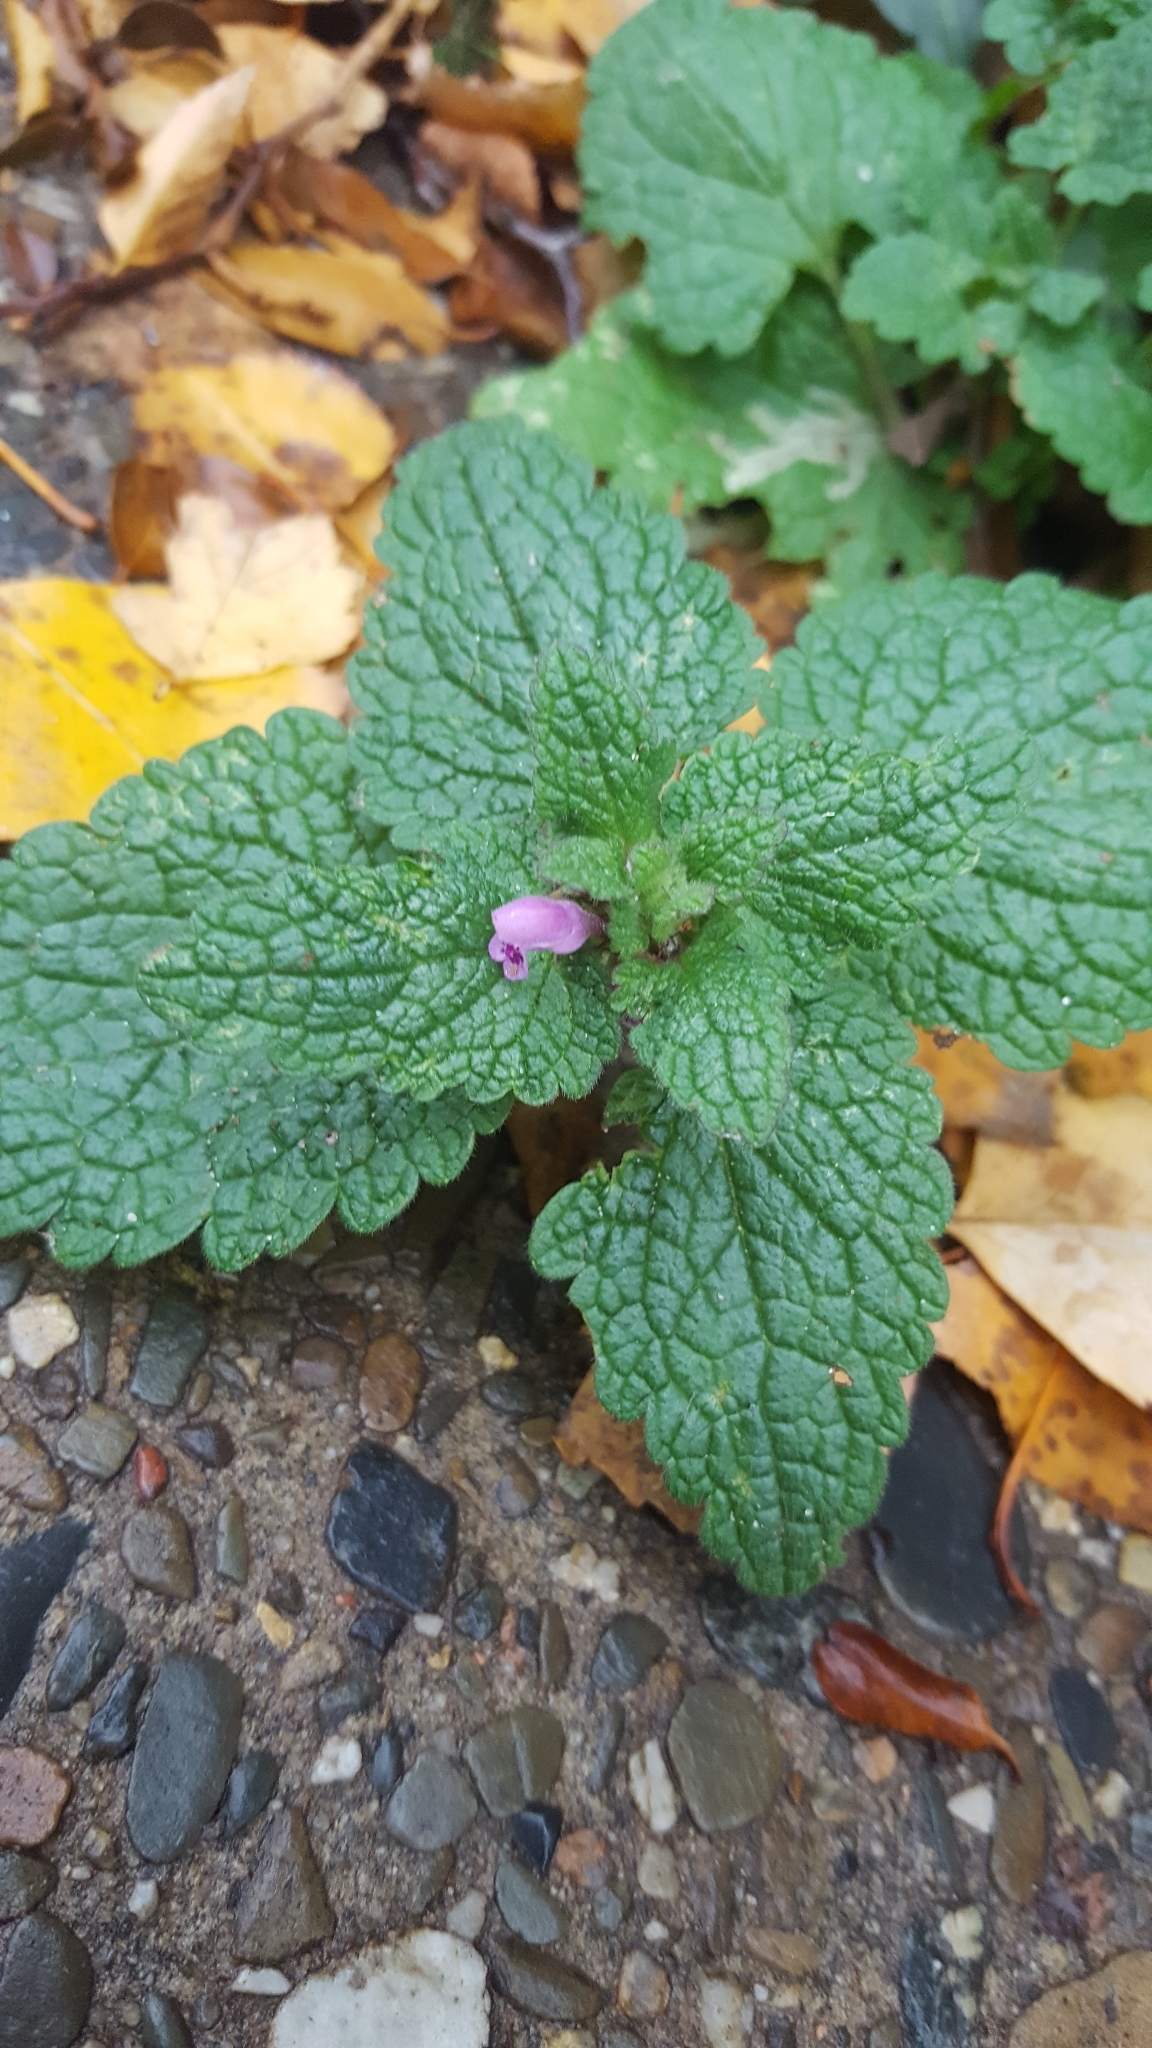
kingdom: Plantae
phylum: Tracheophyta
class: Magnoliopsida
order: Lamiales
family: Lamiaceae
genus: Lamium
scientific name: Lamium purpureum
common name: Red dead-nettle
